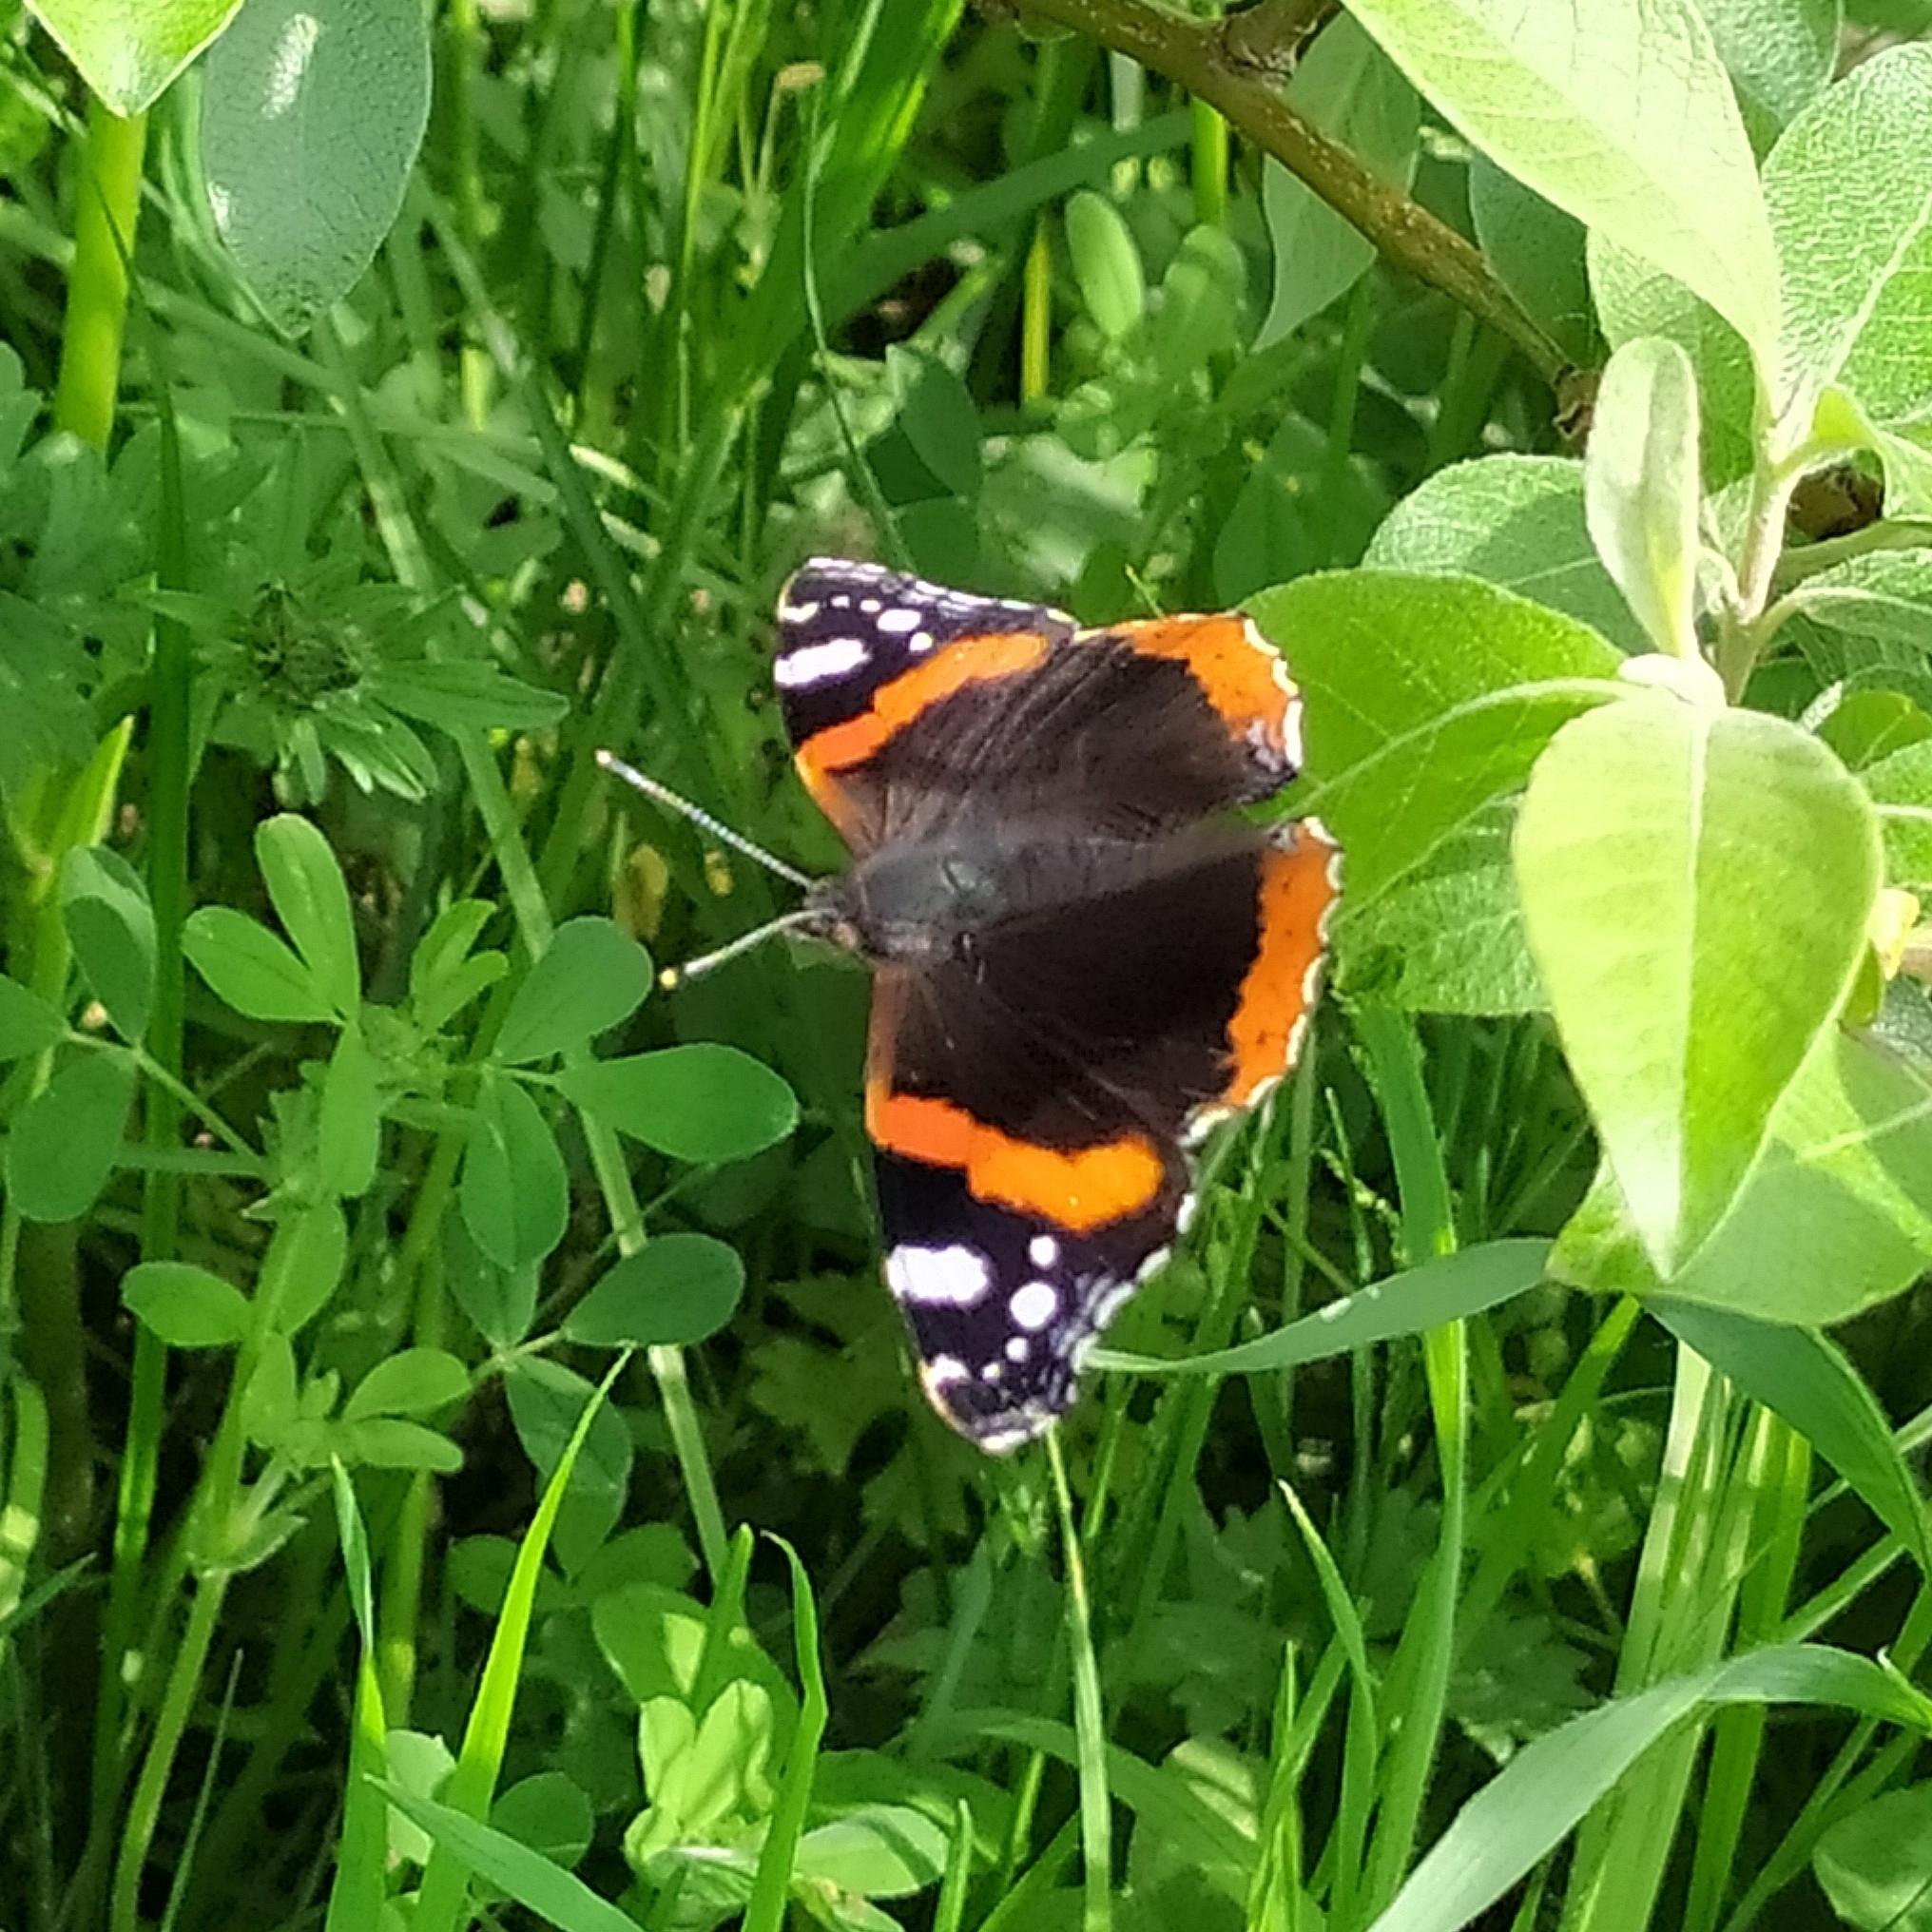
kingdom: Animalia
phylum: Arthropoda
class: Insecta
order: Lepidoptera
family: Nymphalidae
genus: Vanessa
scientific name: Vanessa atalanta
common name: Red admiral
